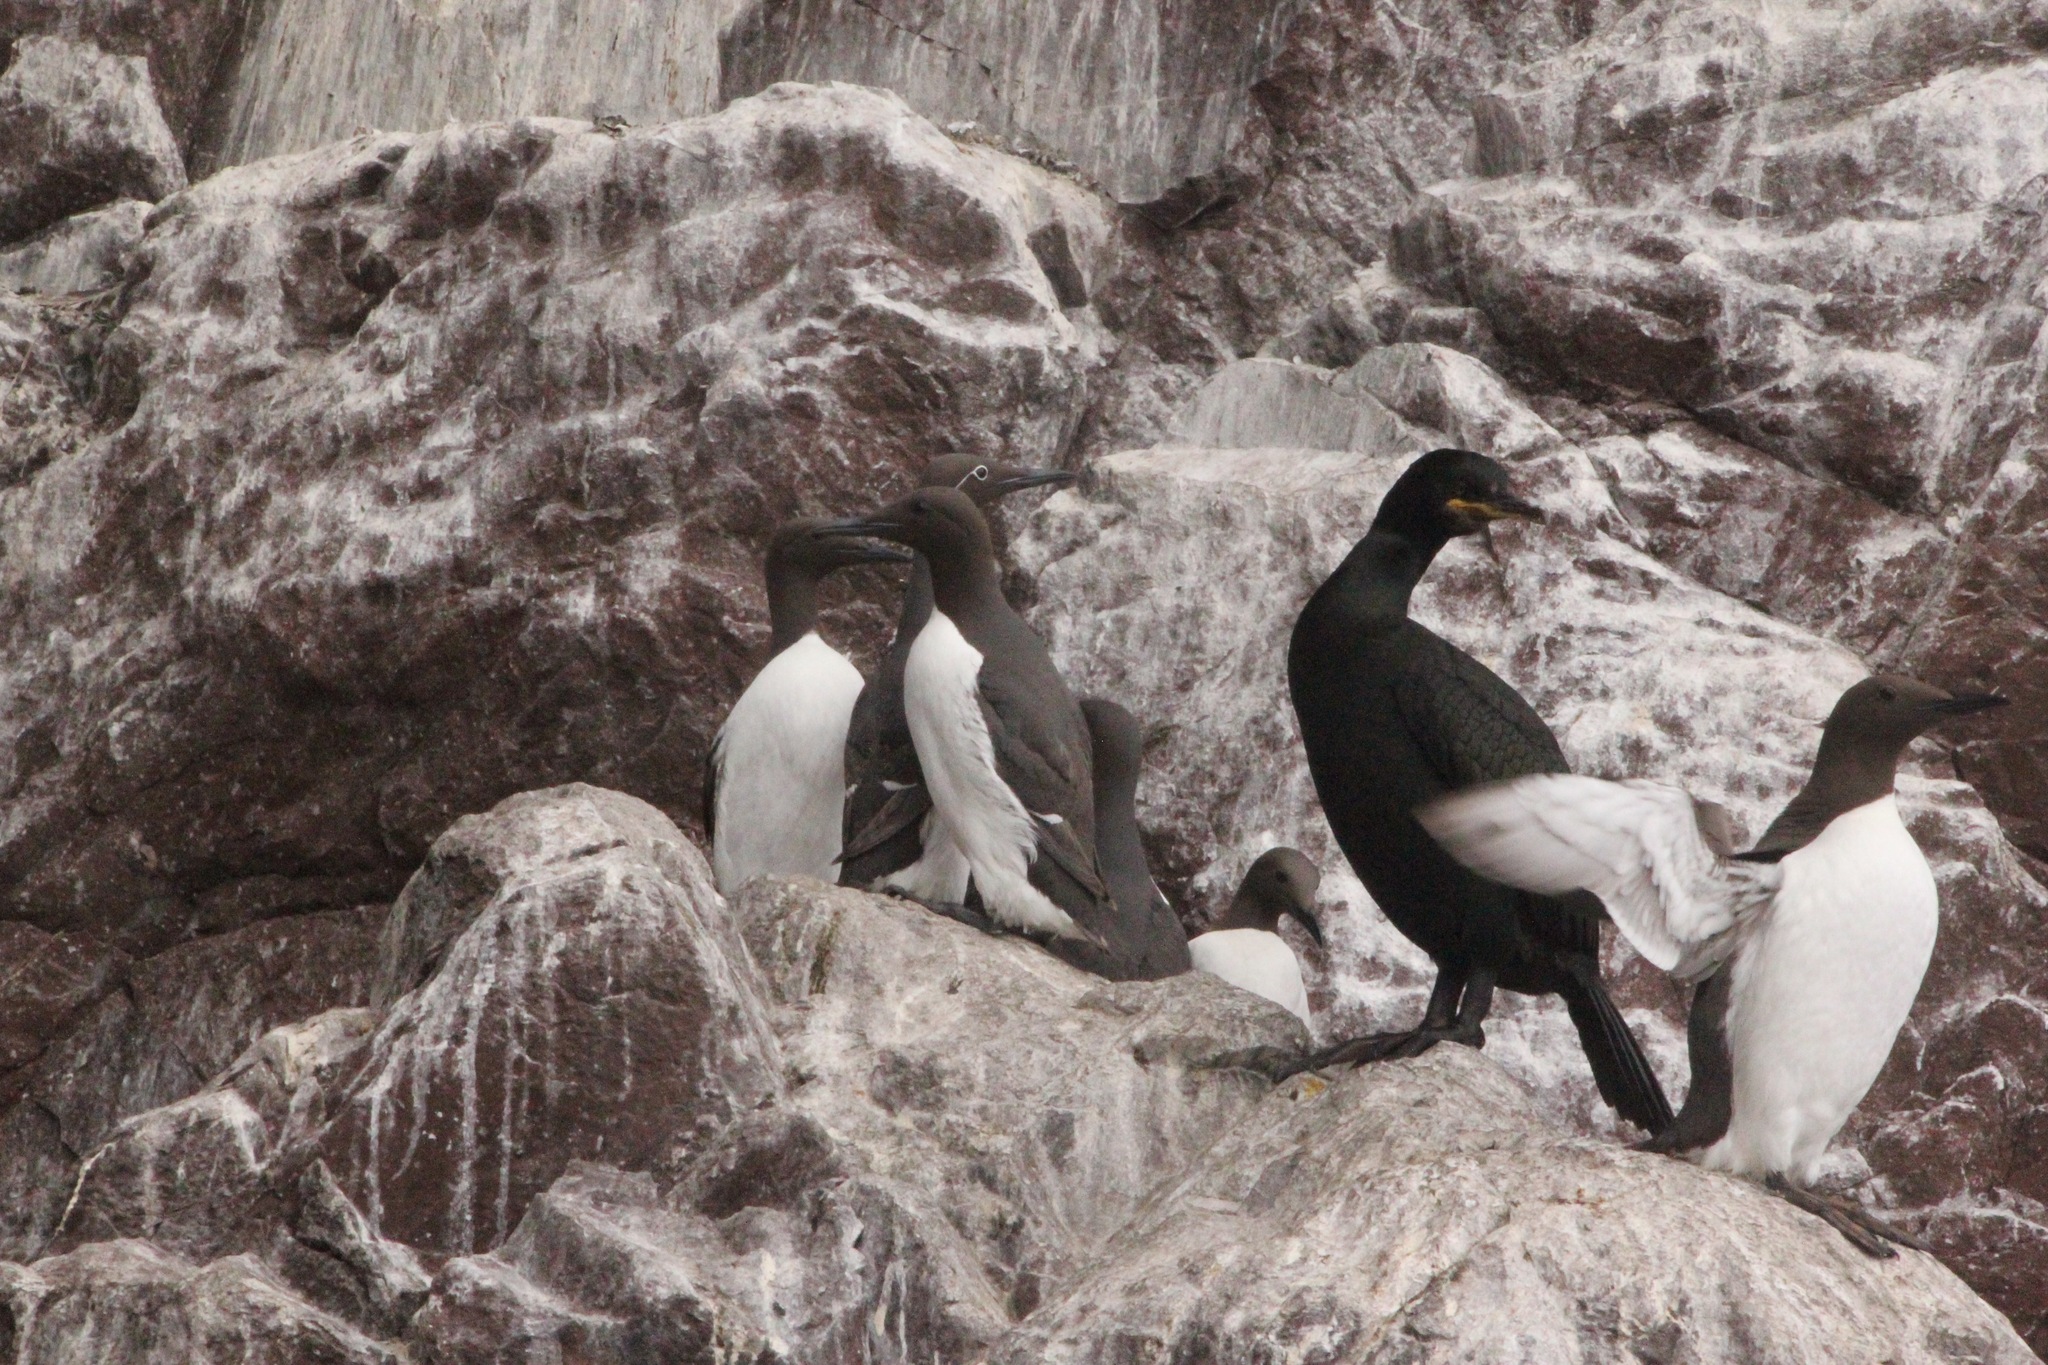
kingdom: Animalia
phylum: Chordata
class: Aves
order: Charadriiformes
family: Alcidae
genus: Uria
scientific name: Uria aalge
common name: Common murre
